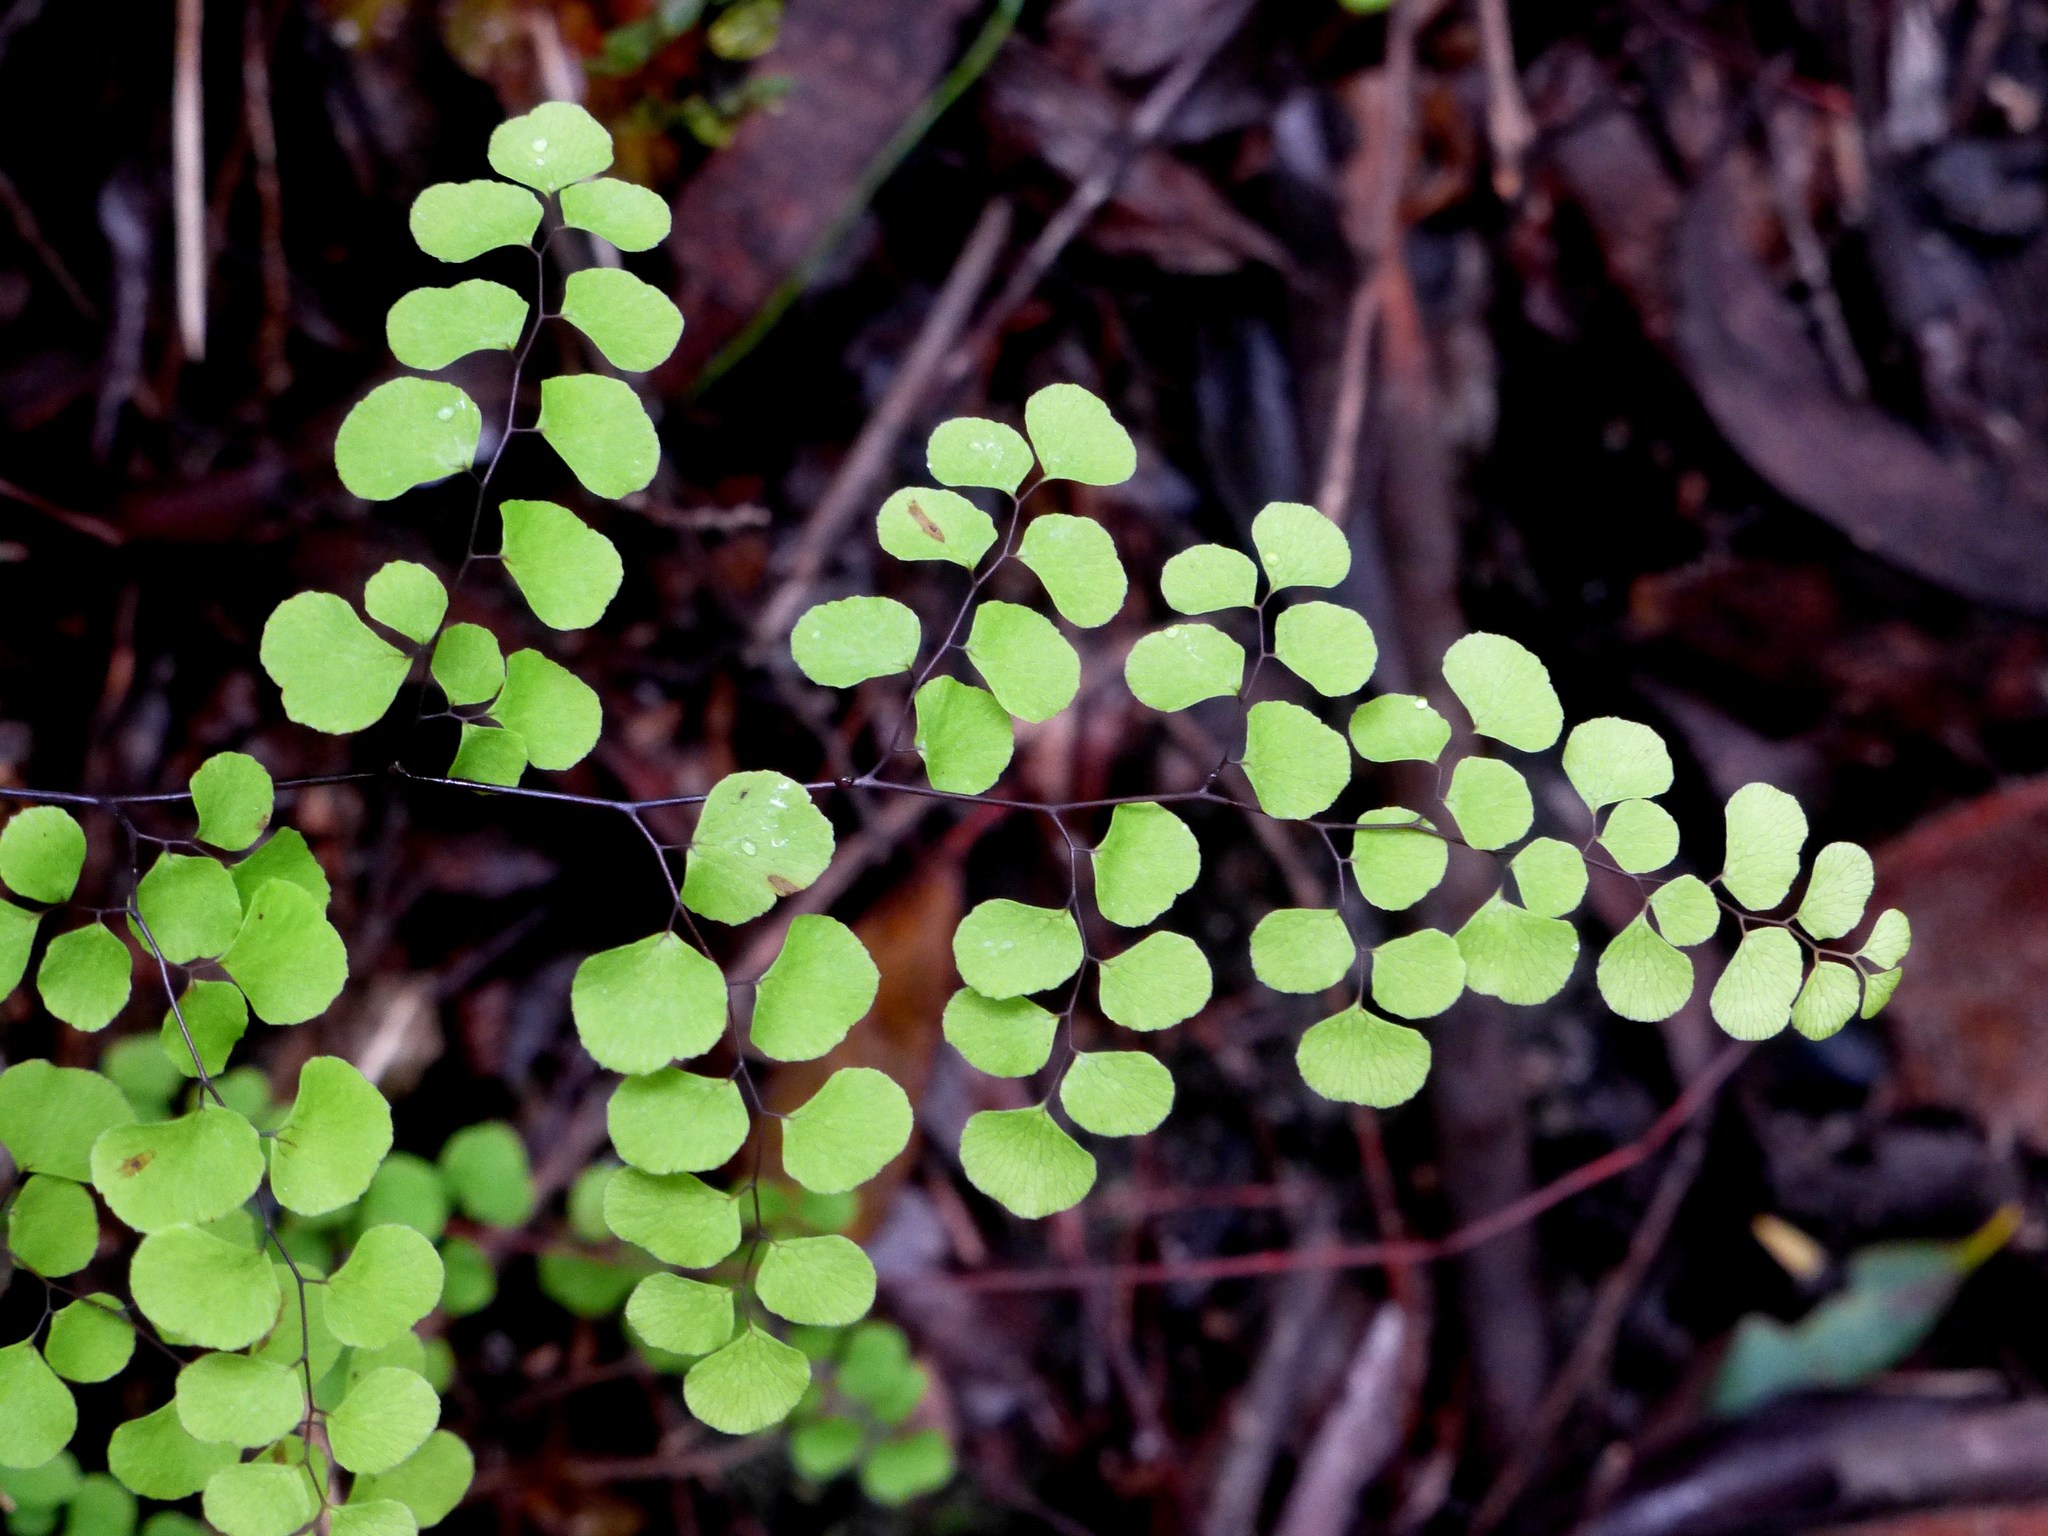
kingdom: Plantae
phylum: Tracheophyta
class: Polypodiopsida
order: Polypodiales
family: Pteridaceae
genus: Adiantum
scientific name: Adiantum aethiopicum
